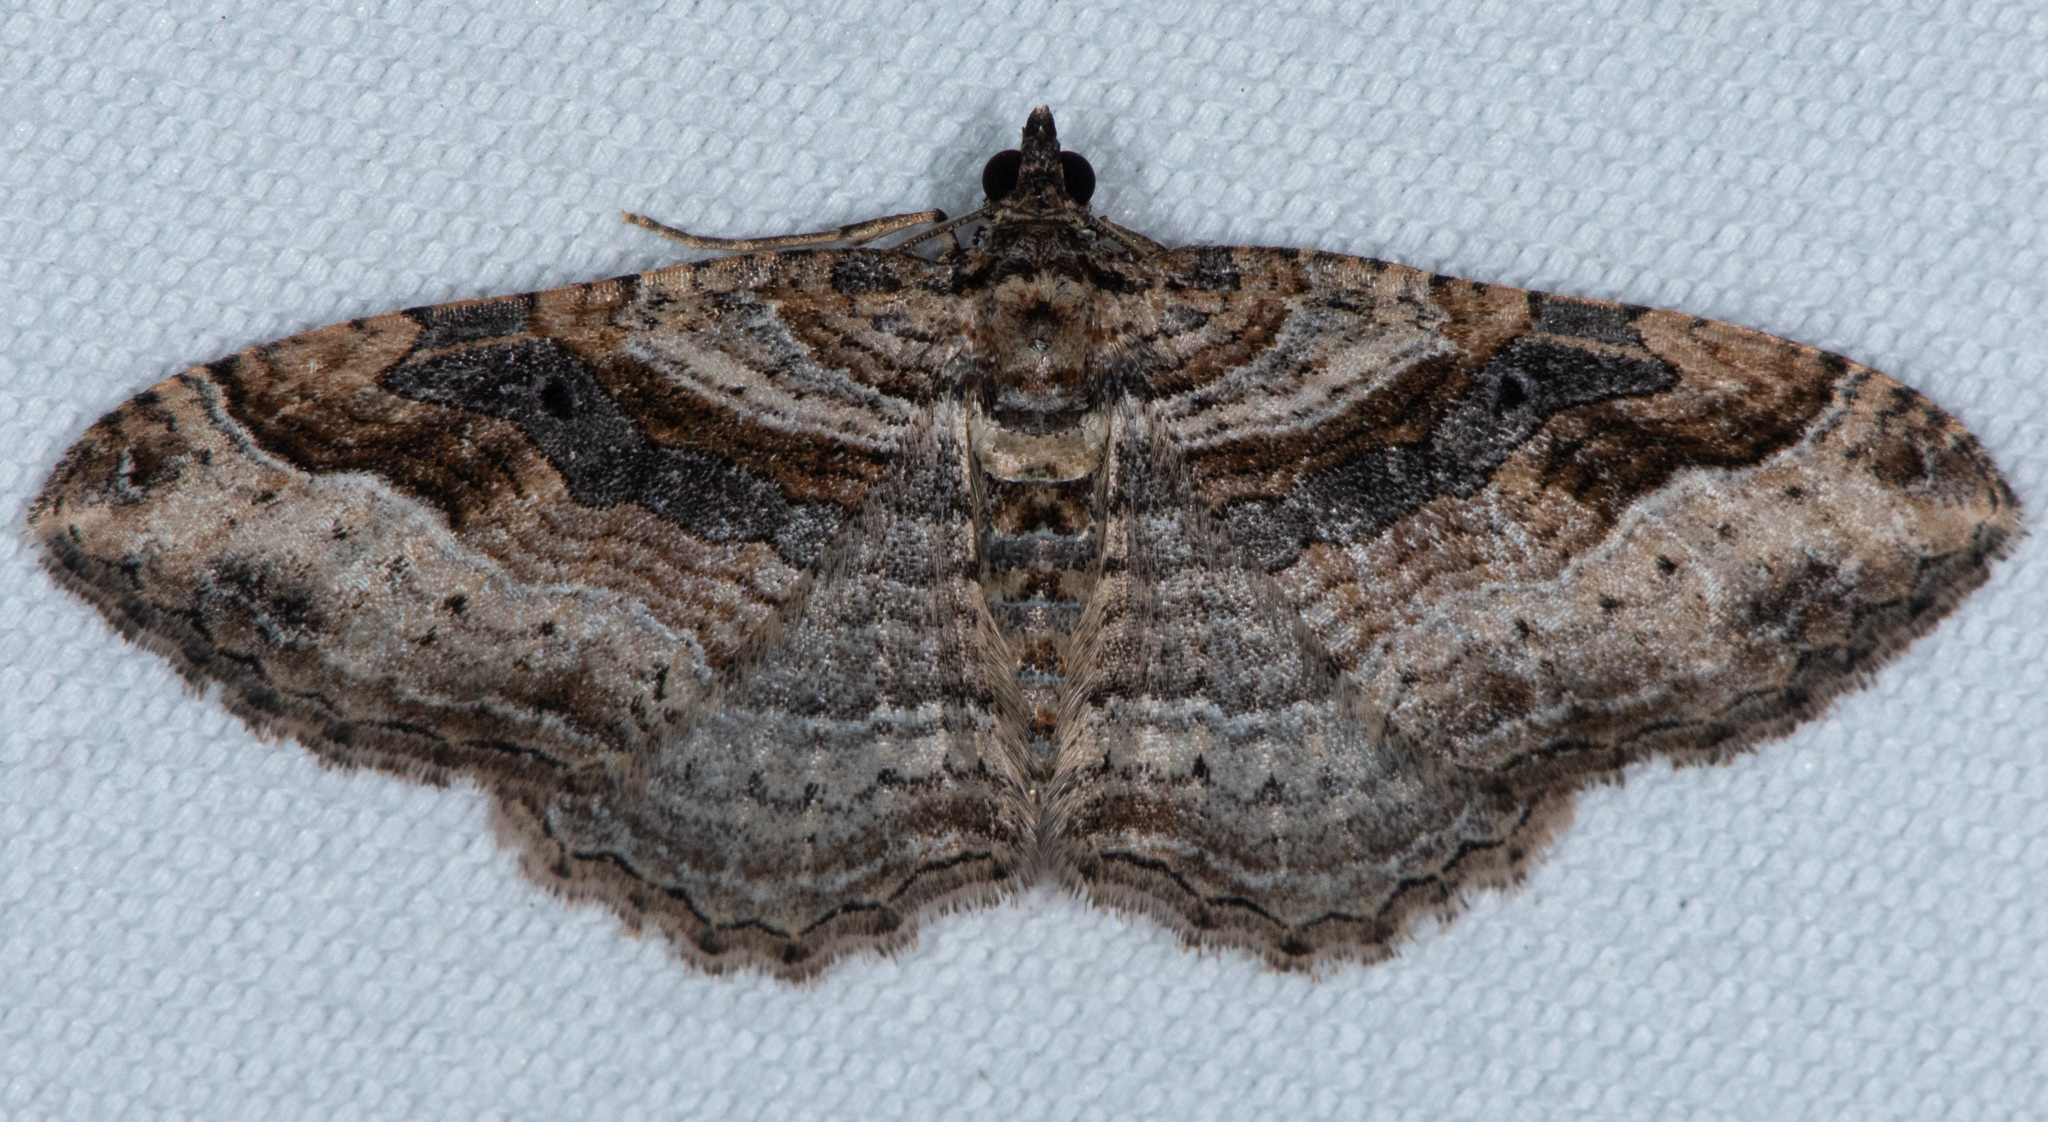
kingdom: Animalia
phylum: Arthropoda
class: Insecta
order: Lepidoptera
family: Geometridae
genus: Costaconvexa
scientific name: Costaconvexa centrostrigaria
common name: Bent-line carpet
